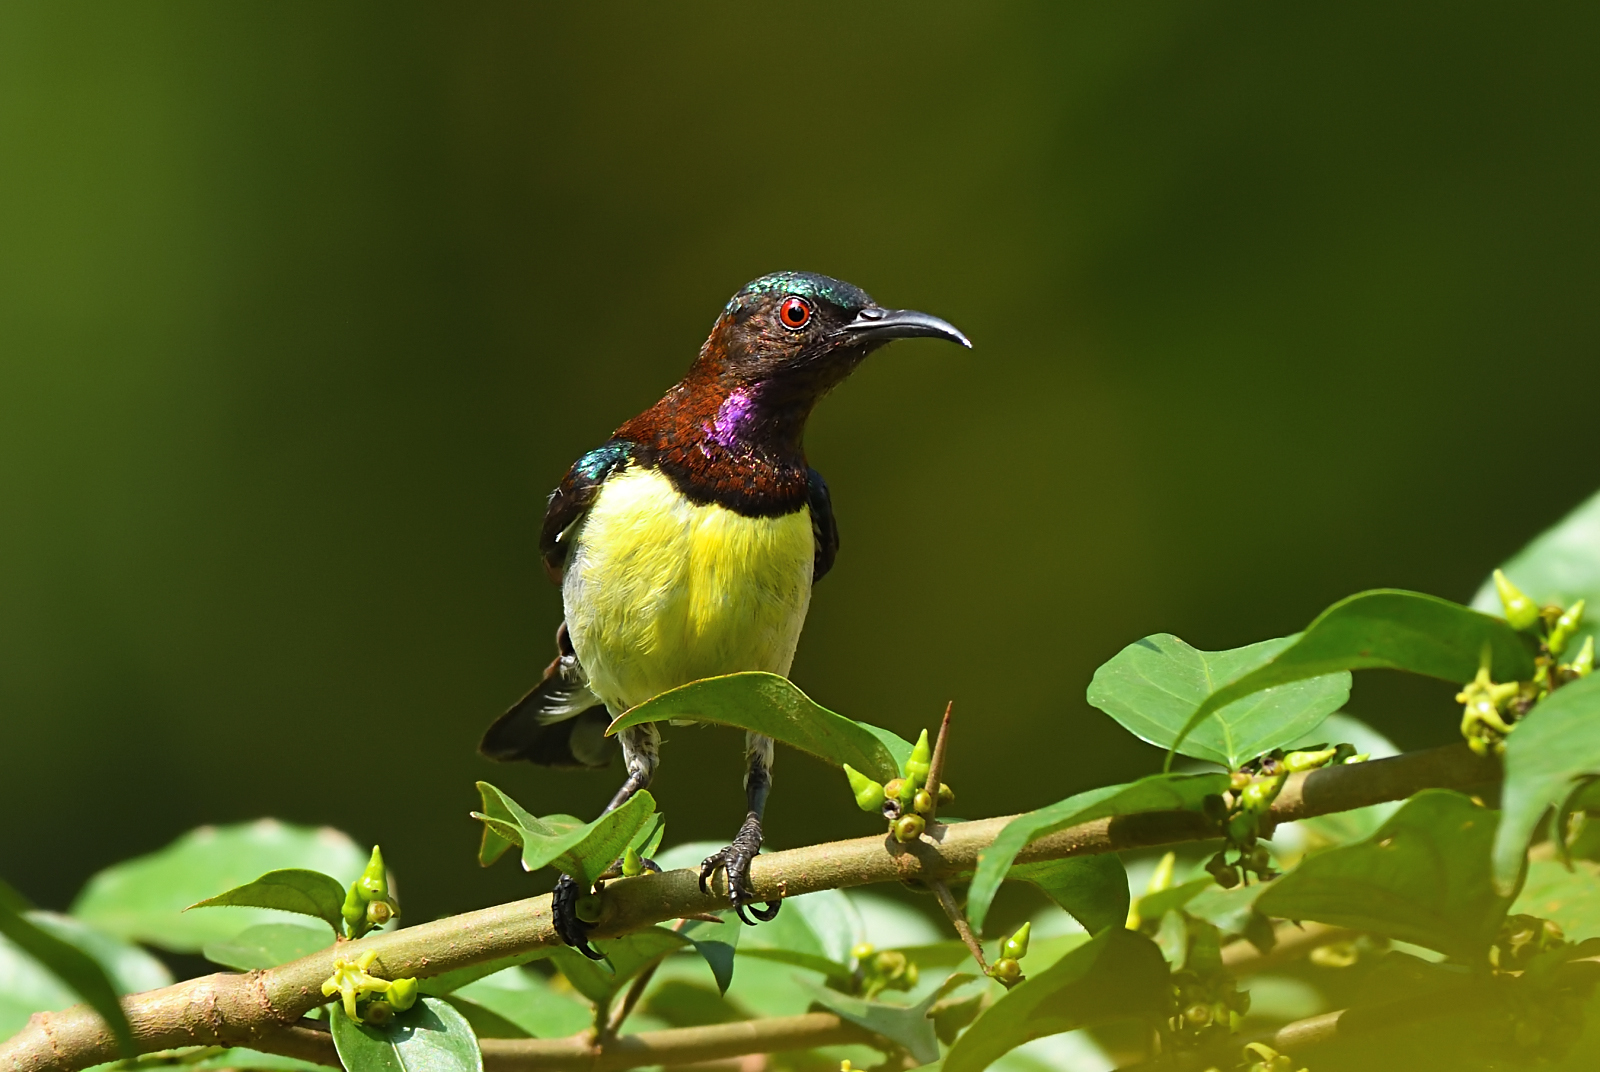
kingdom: Animalia
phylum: Chordata
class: Aves
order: Passeriformes
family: Nectariniidae
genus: Leptocoma
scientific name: Leptocoma zeylonica
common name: Purple-rumped sunbird
